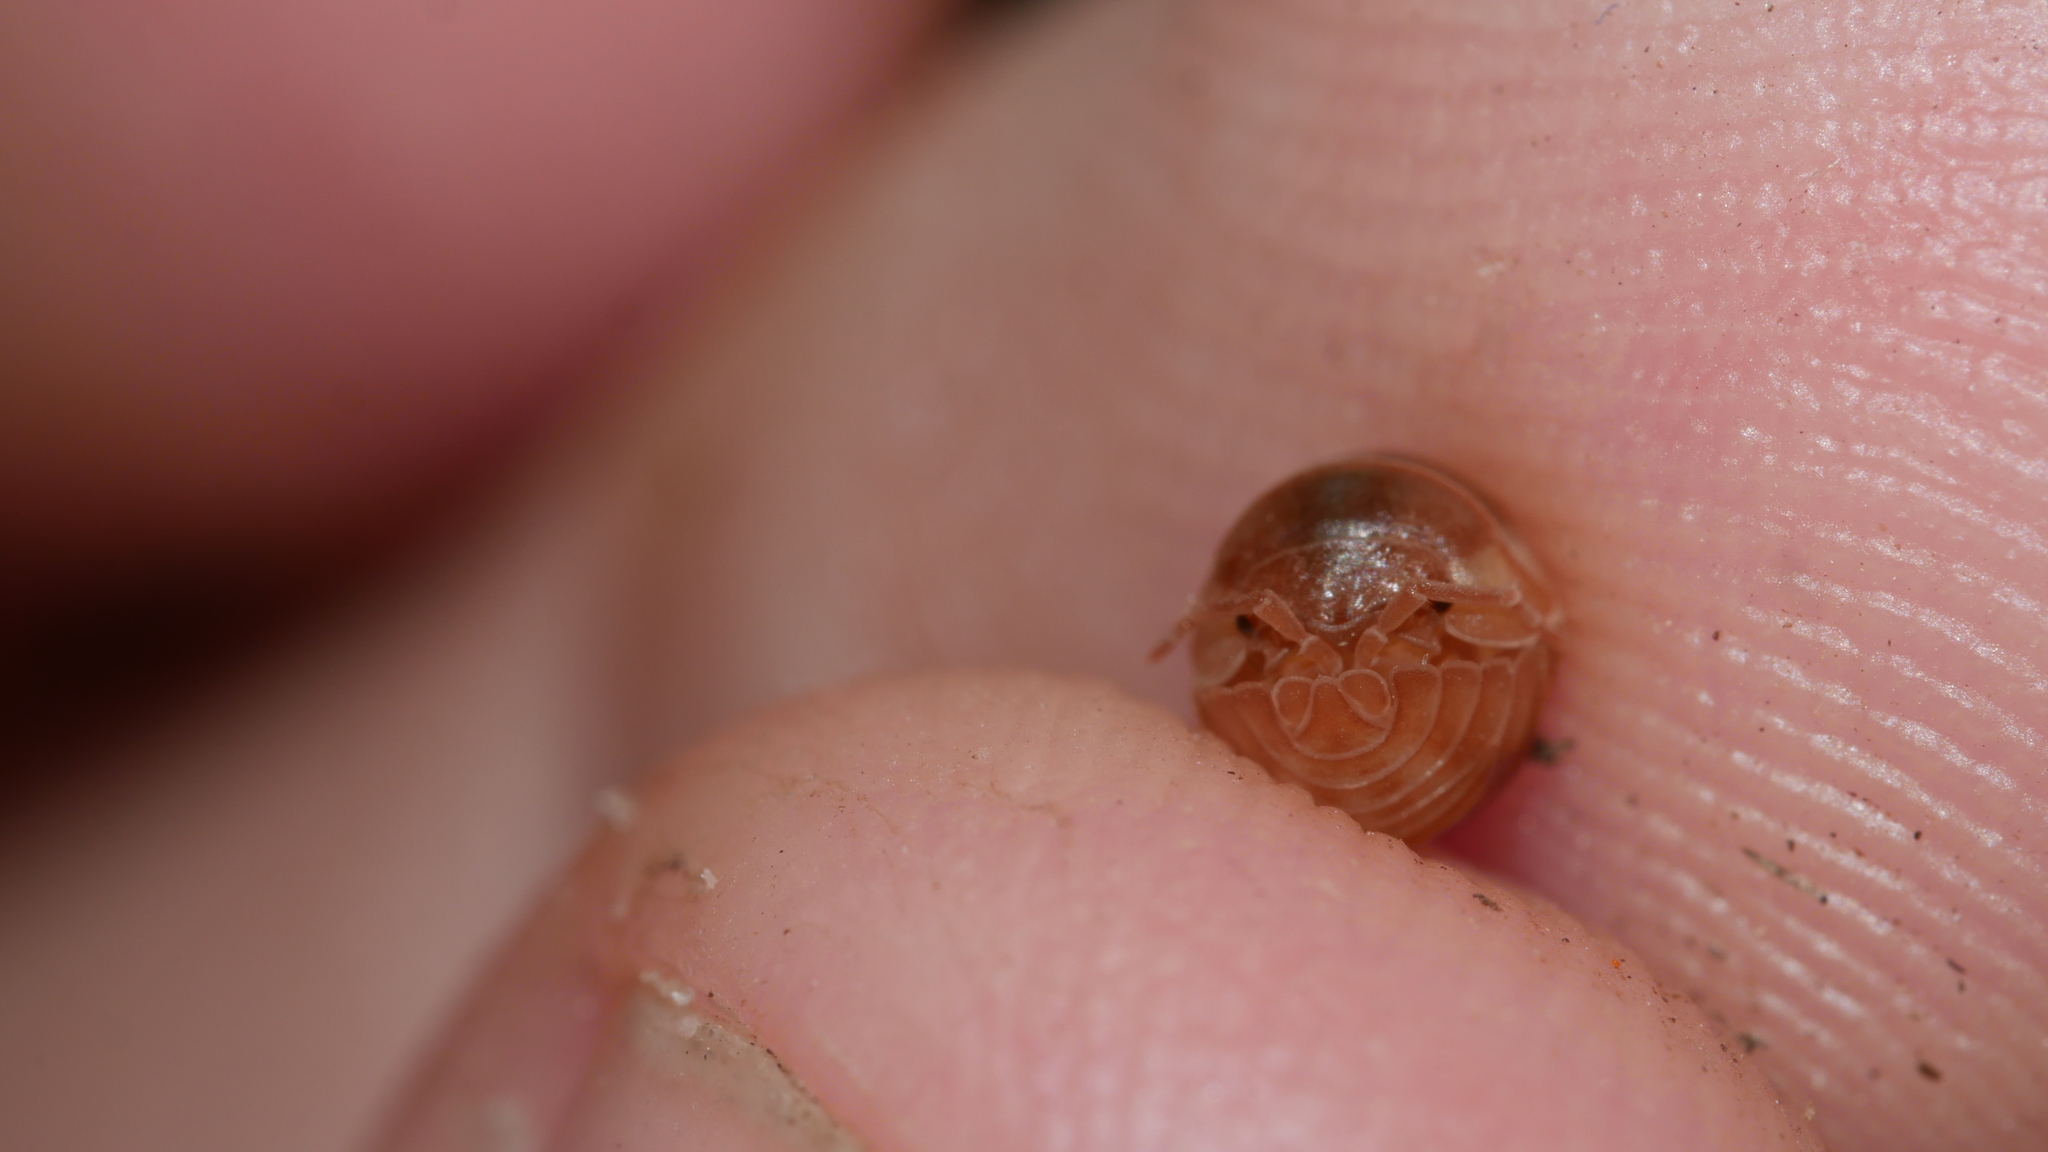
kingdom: Animalia
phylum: Arthropoda
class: Malacostraca
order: Isopoda
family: Armadillidiidae
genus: Armadillidium
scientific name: Armadillidium nasatum
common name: Isopod
